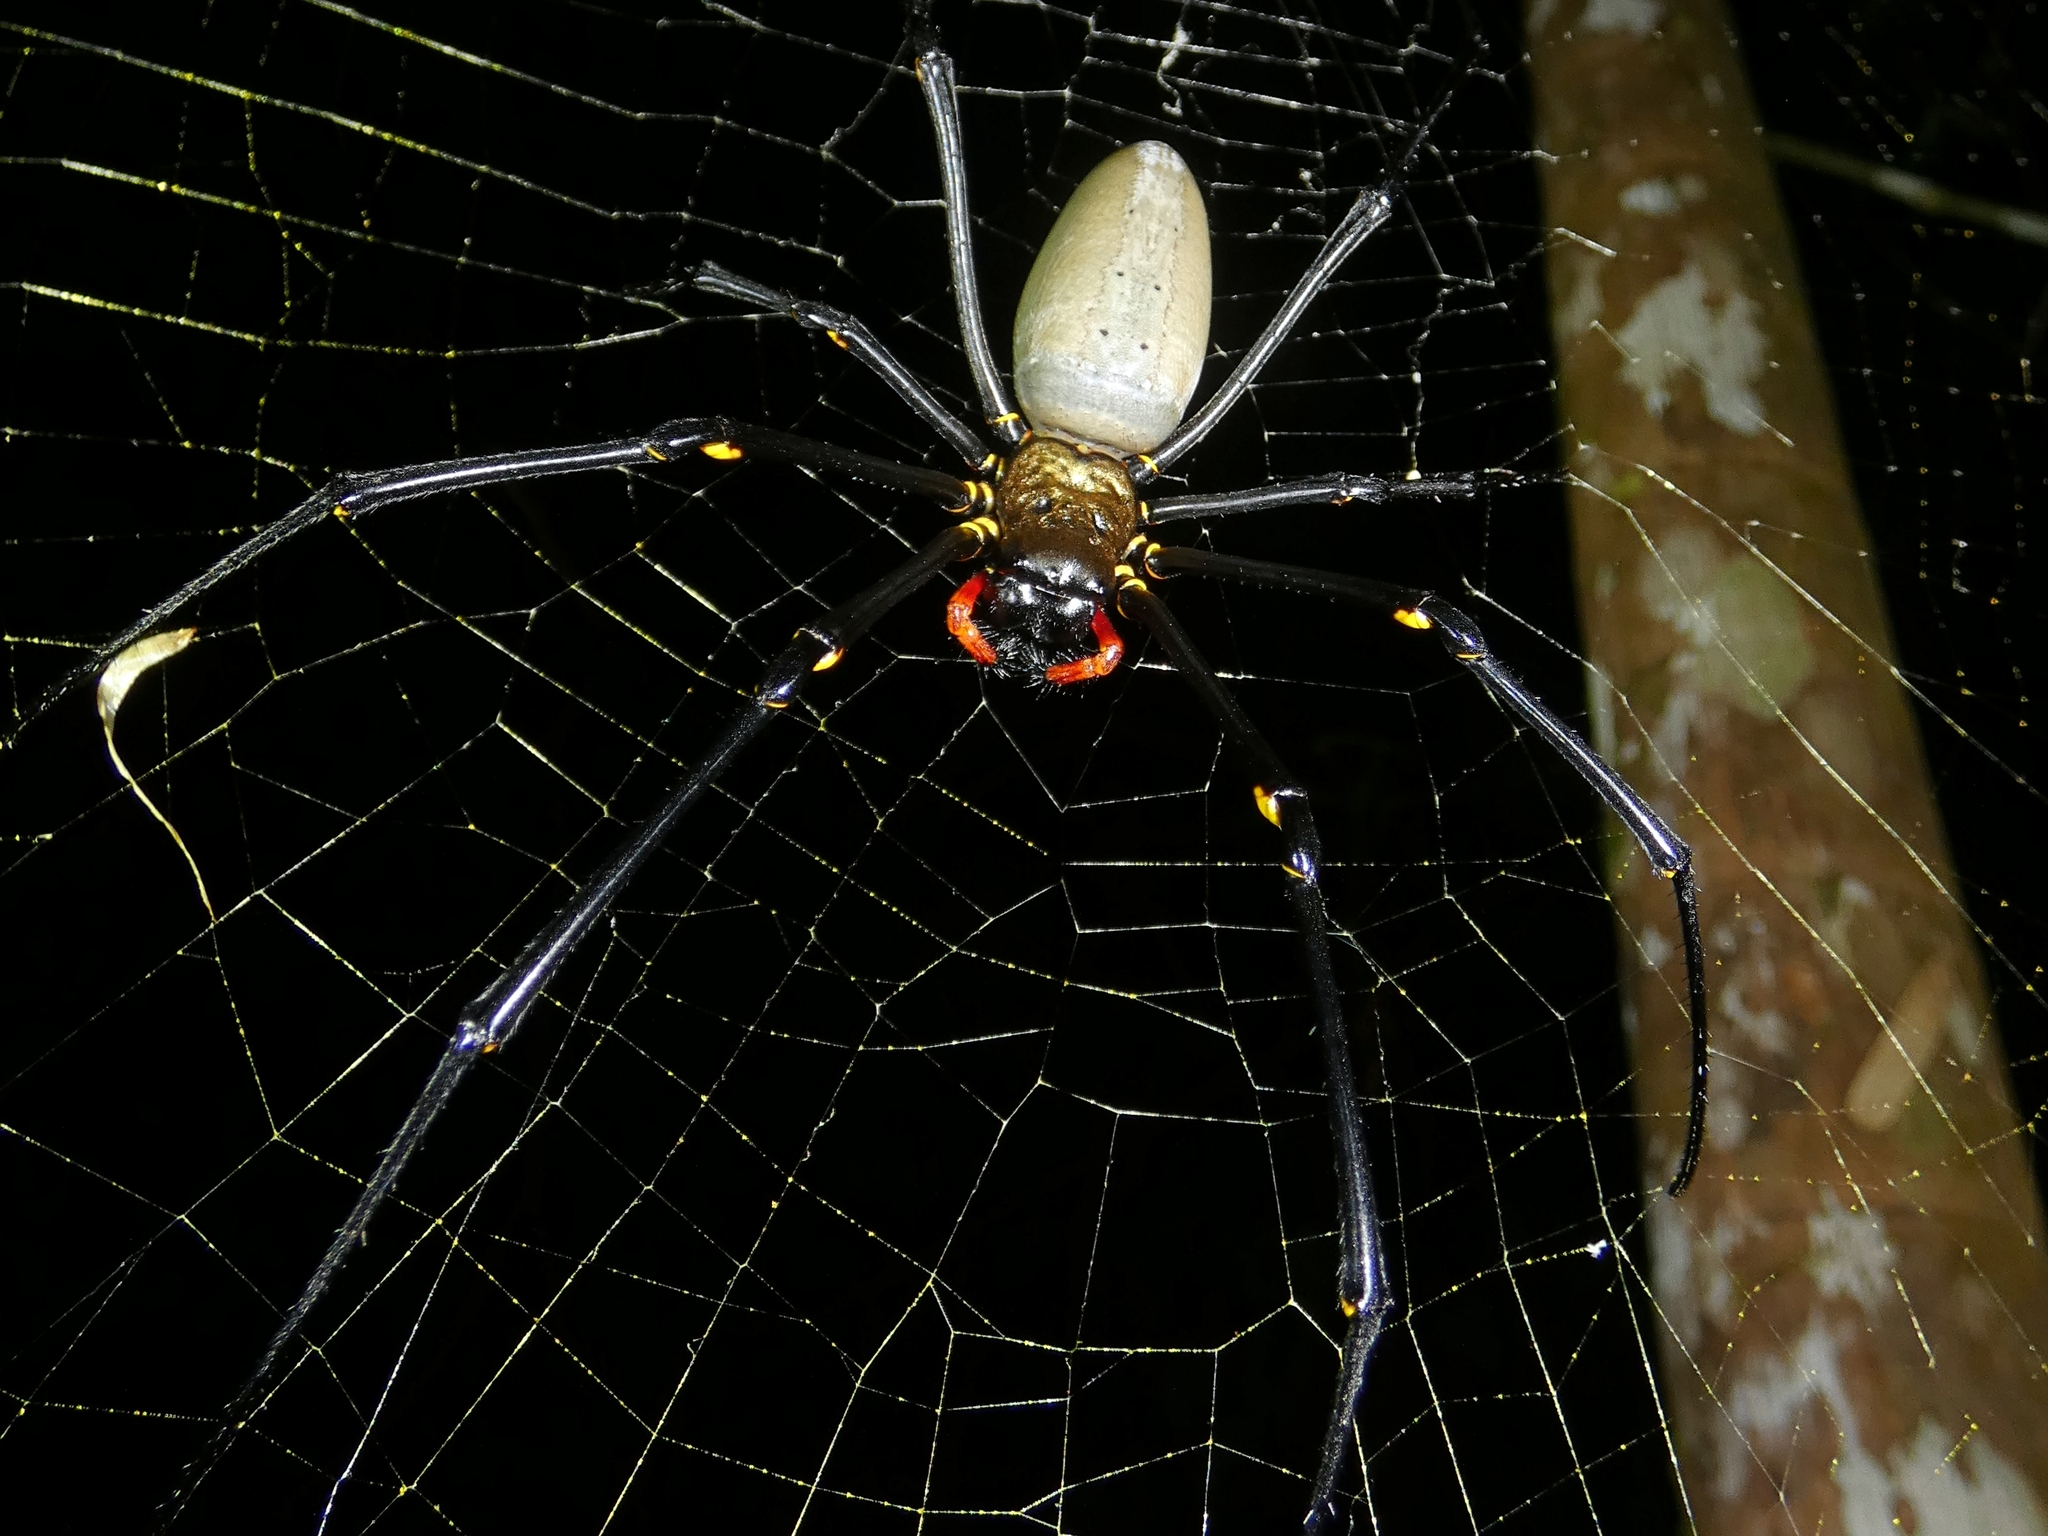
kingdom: Animalia
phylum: Arthropoda
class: Arachnida
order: Araneae
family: Araneidae
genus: Nephila
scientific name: Nephila pilipes
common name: Giant golden orb weaver
